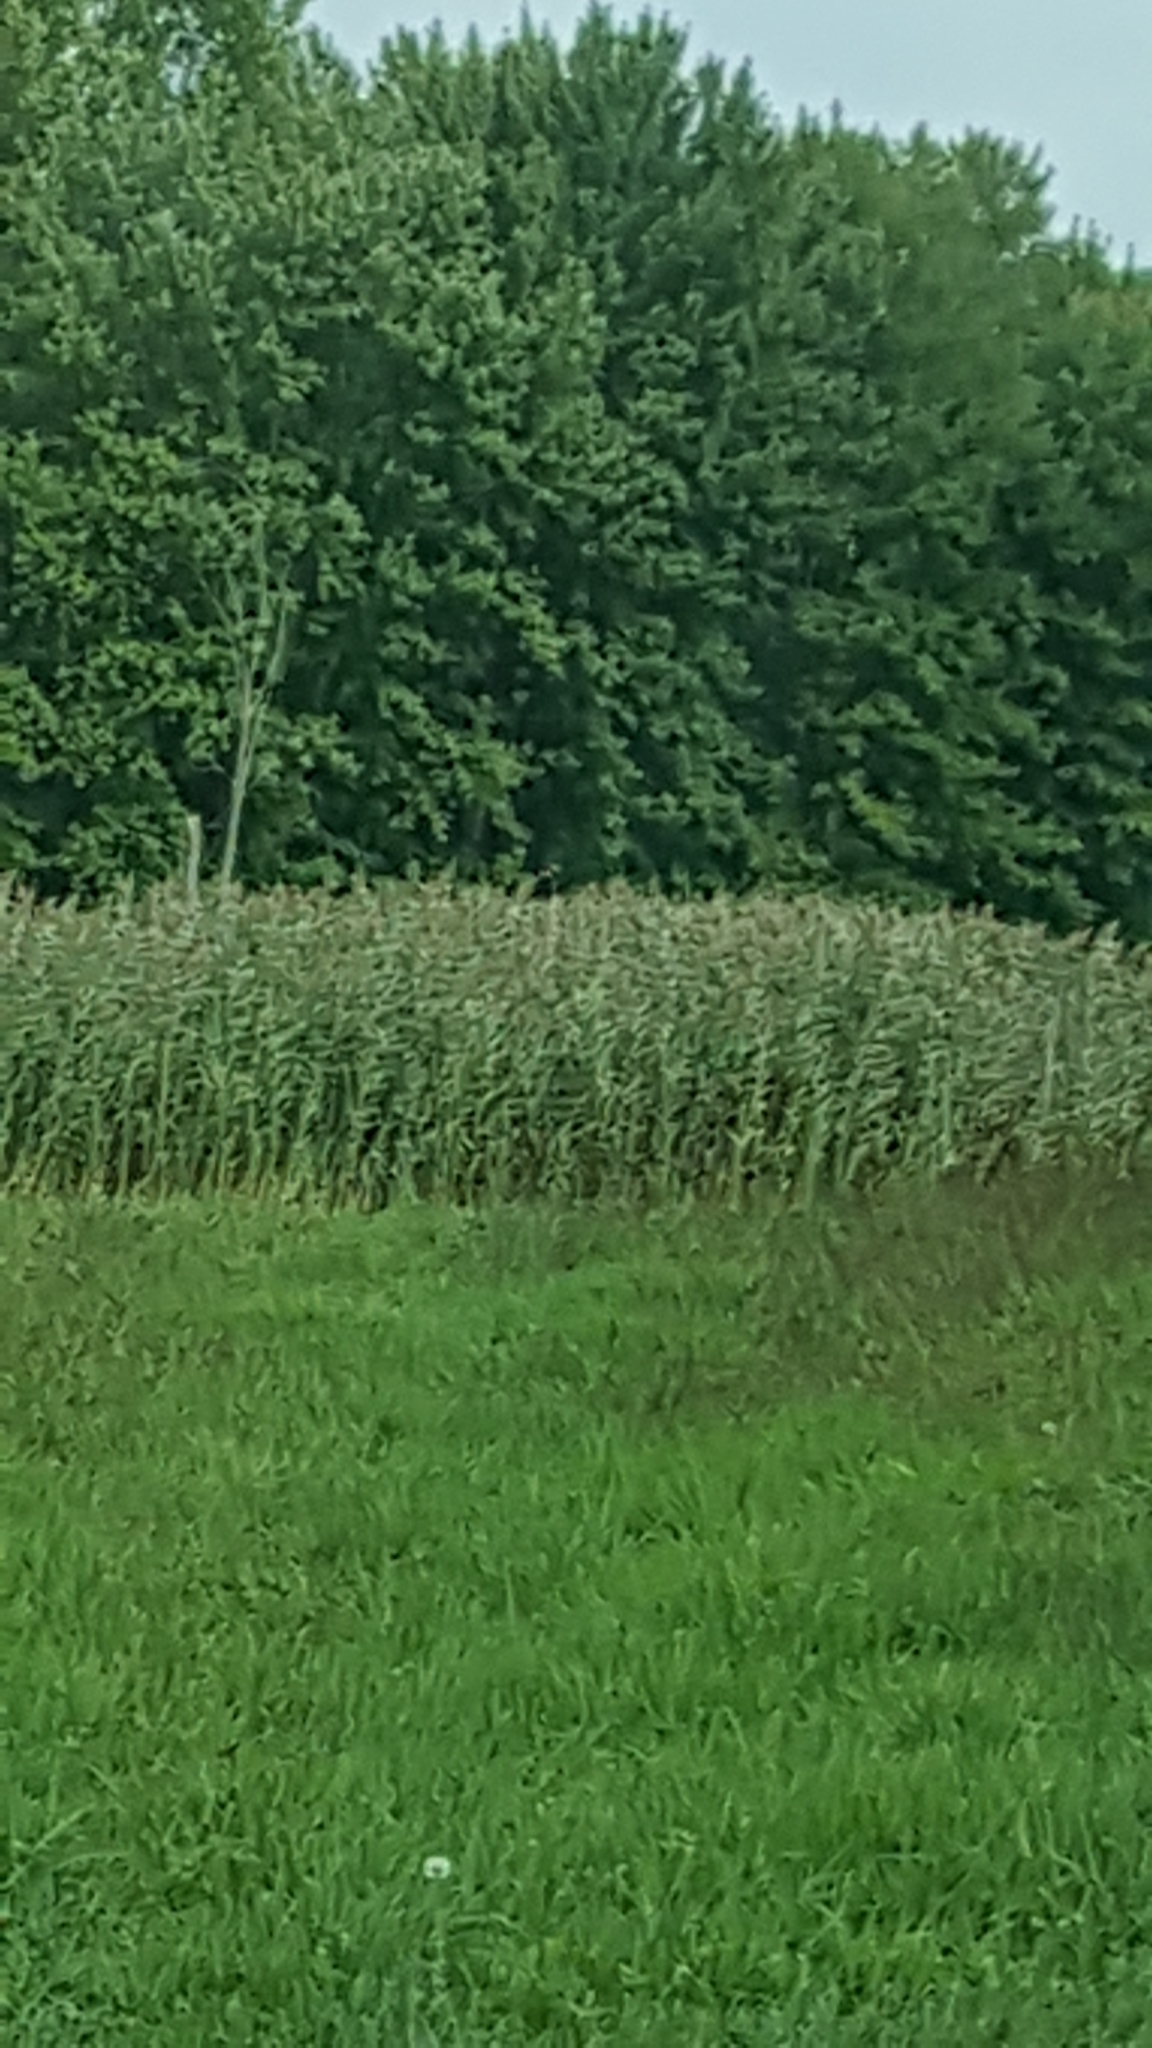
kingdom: Plantae
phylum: Tracheophyta
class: Liliopsida
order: Poales
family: Poaceae
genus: Phragmites
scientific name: Phragmites australis
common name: Common reed
